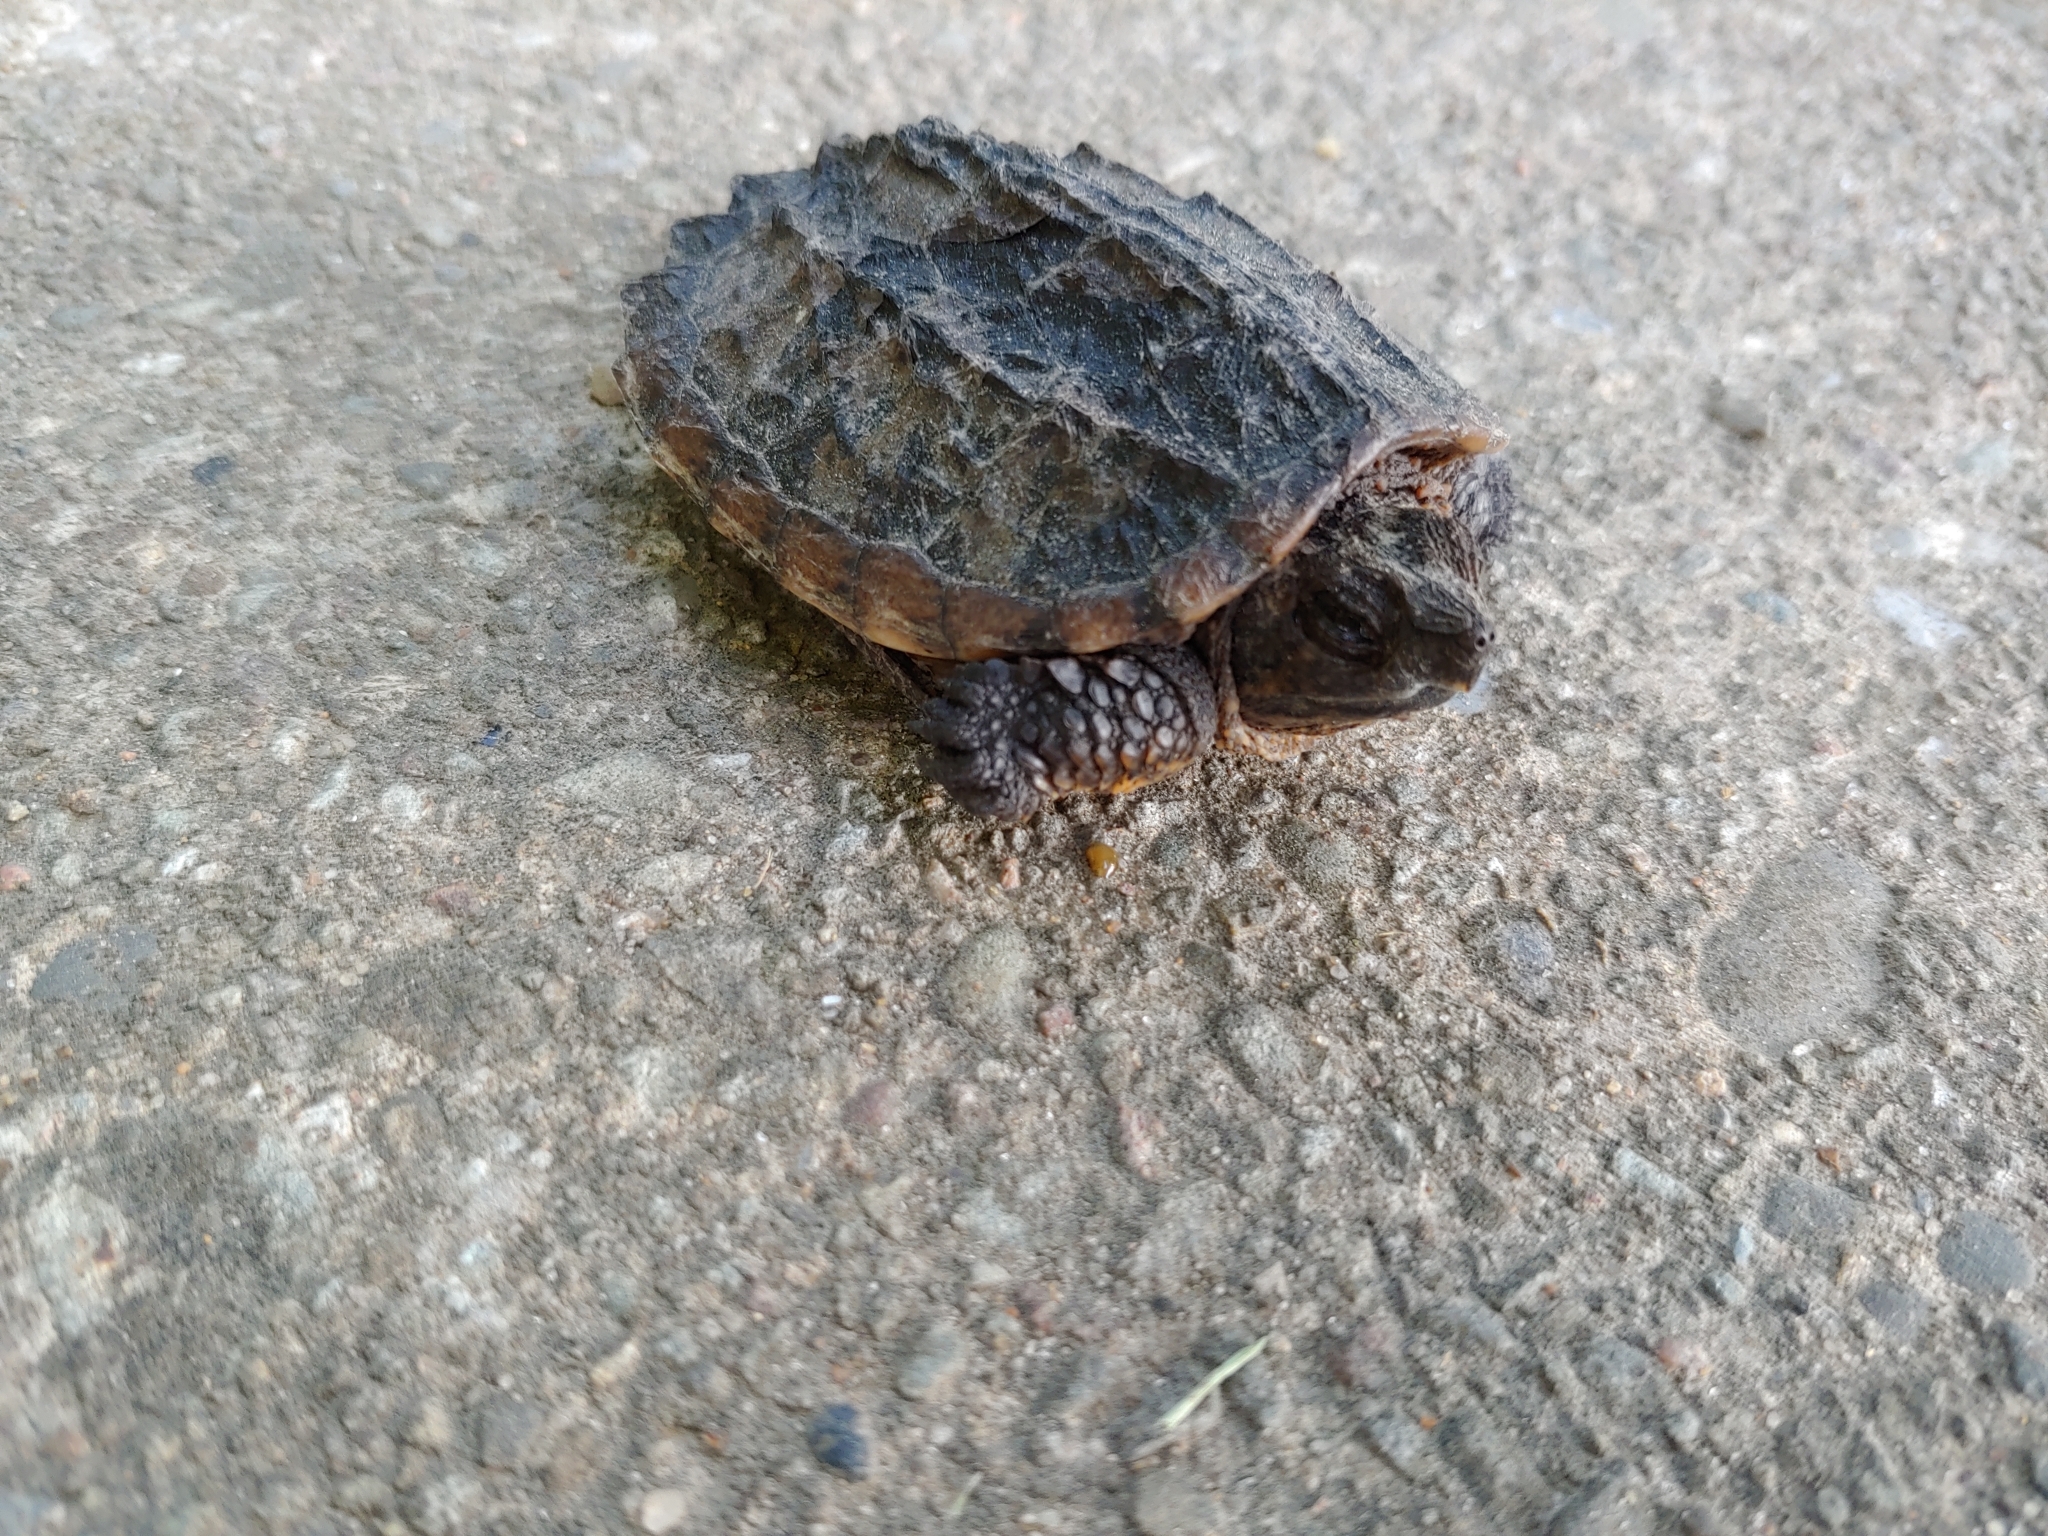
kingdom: Animalia
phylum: Chordata
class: Testudines
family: Chelydridae
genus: Chelydra
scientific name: Chelydra serpentina
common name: Common snapping turtle
